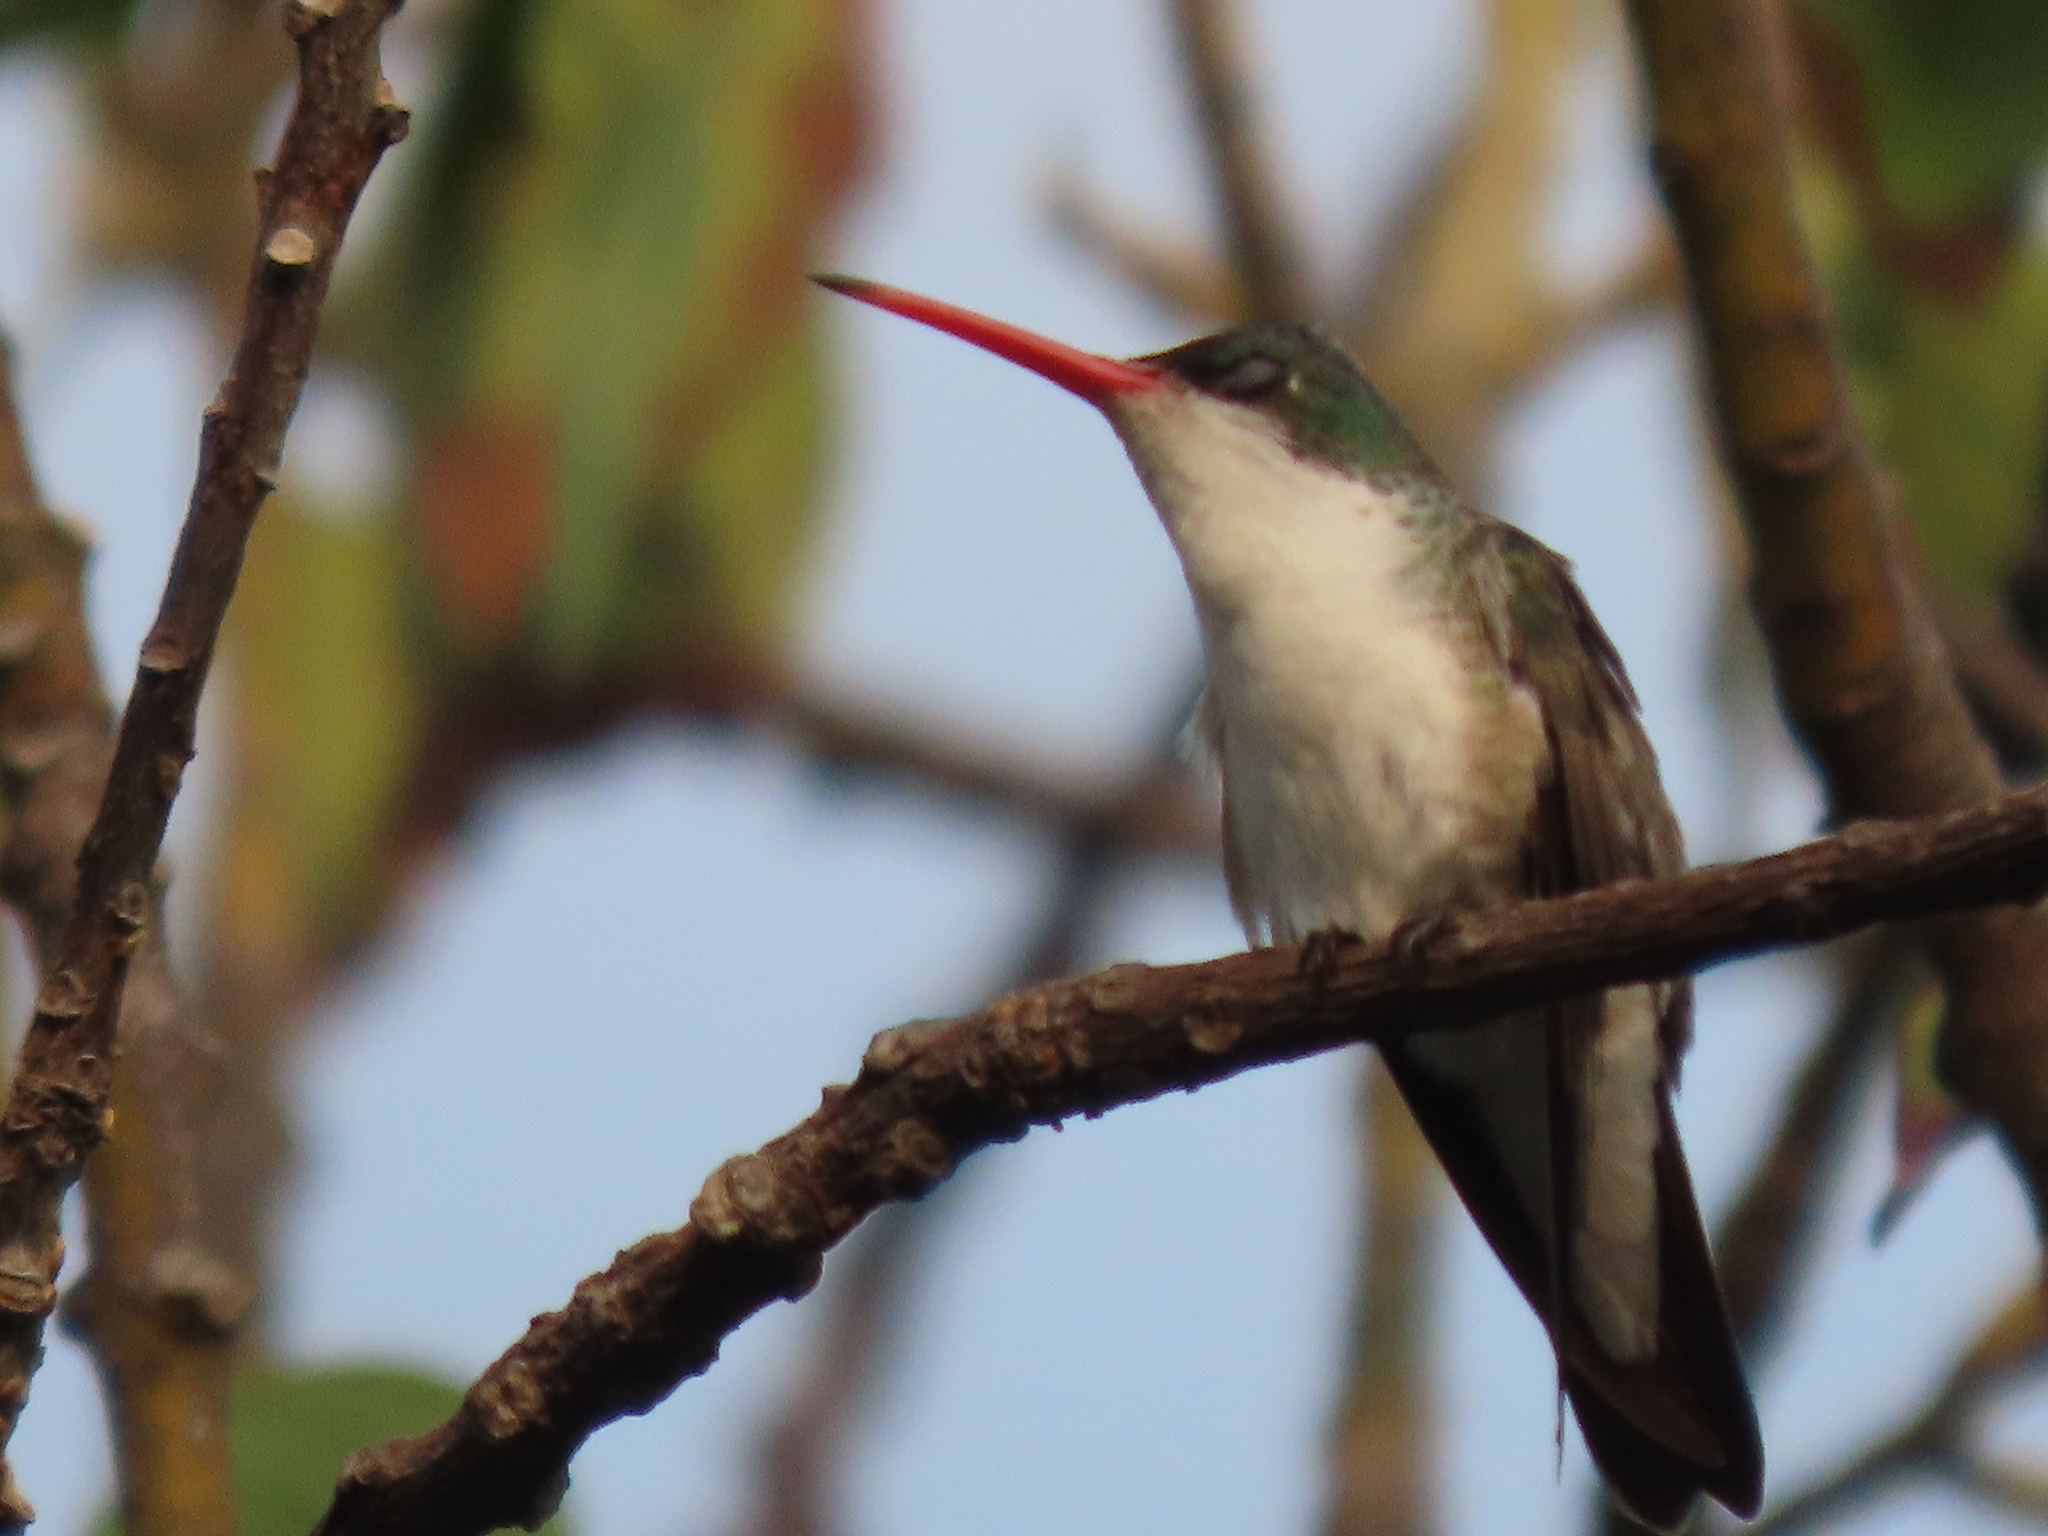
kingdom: Animalia
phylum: Chordata
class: Aves
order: Apodiformes
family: Trochilidae
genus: Leucolia
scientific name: Leucolia viridifrons
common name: Green-fronted hummingbird
